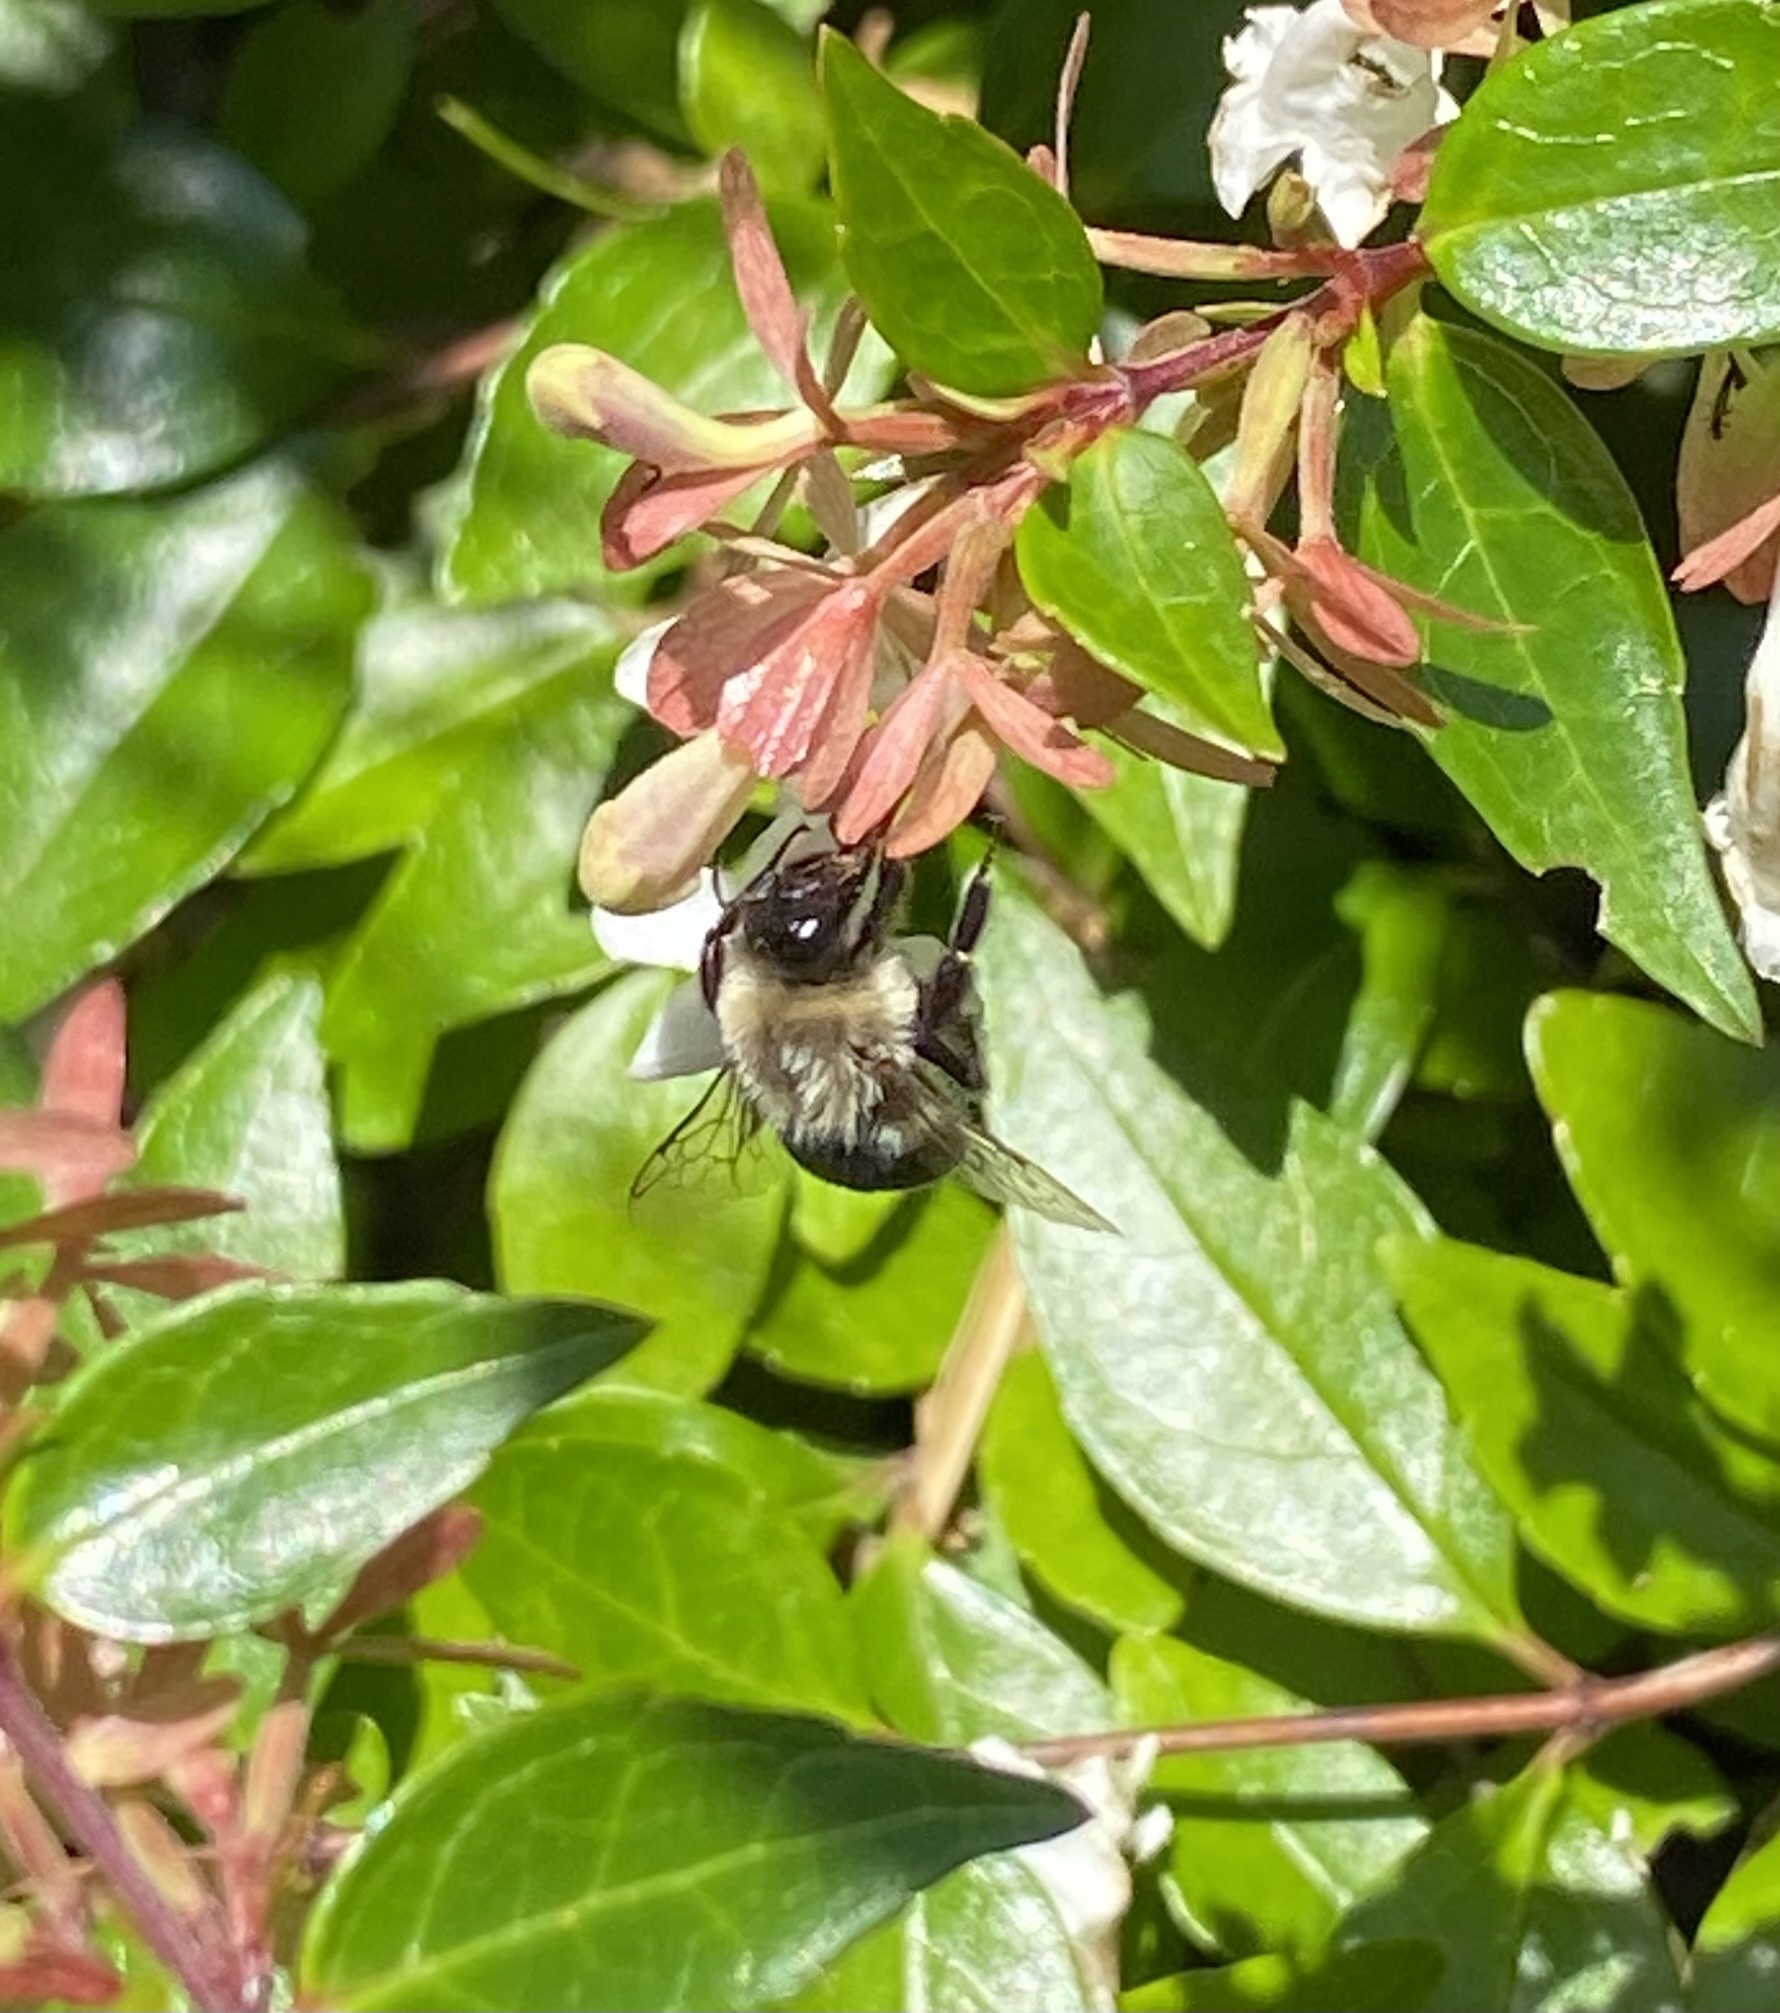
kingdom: Animalia
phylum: Arthropoda
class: Insecta
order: Hymenoptera
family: Apidae
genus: Bombus
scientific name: Bombus impatiens
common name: Common eastern bumble bee
